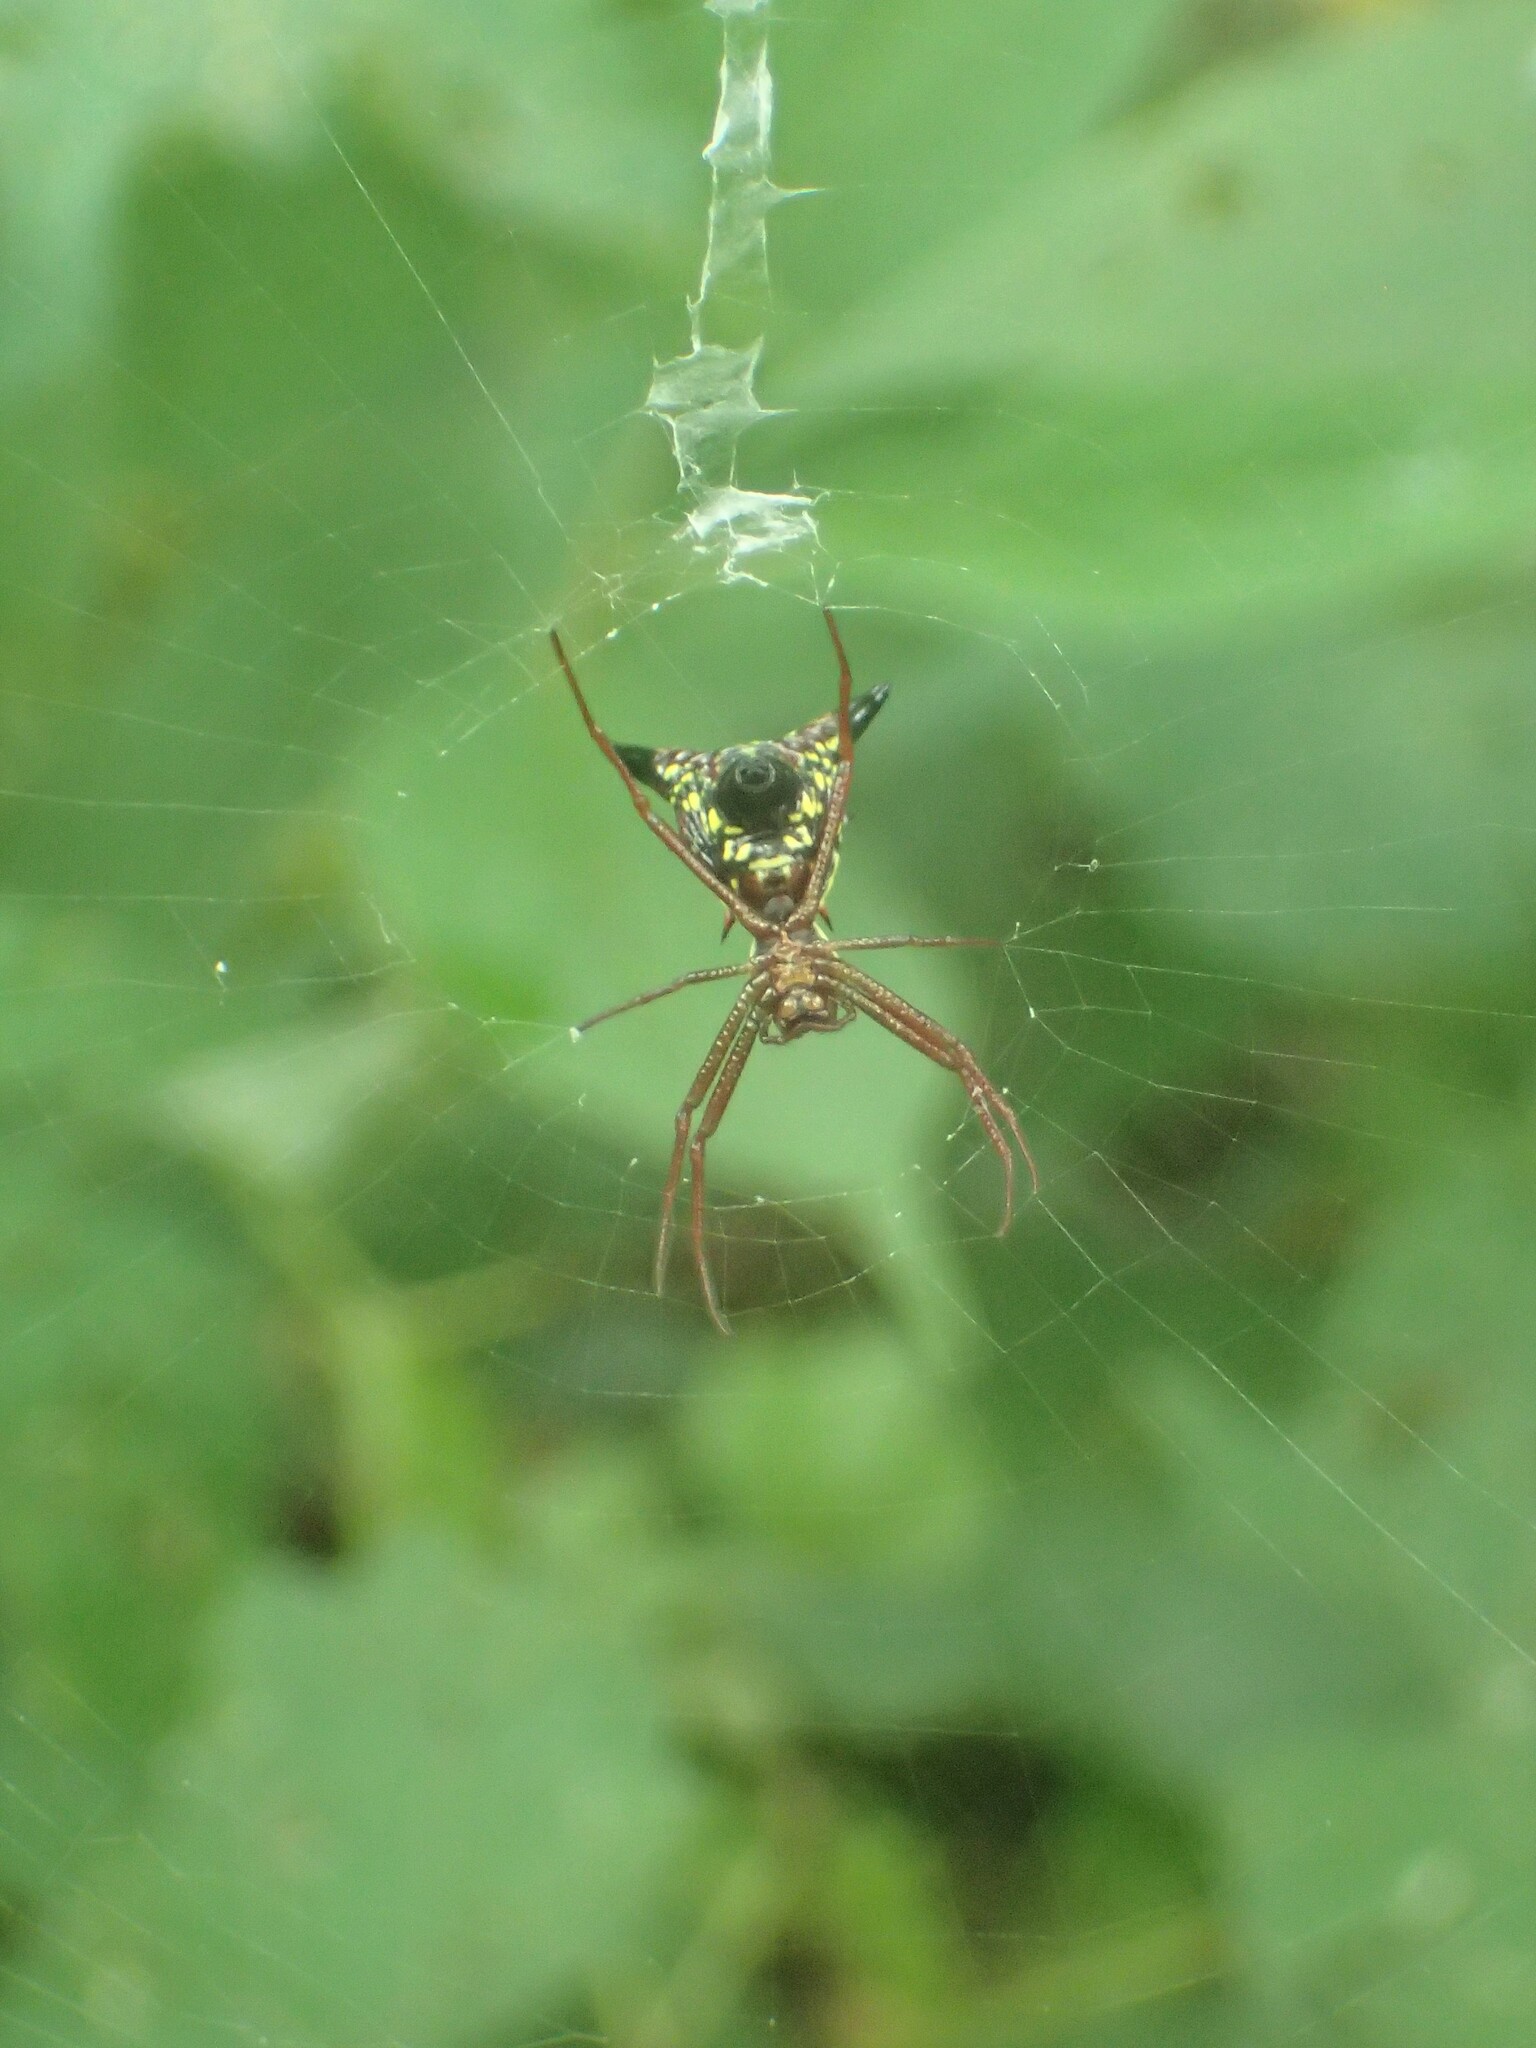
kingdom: Animalia
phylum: Arthropoda
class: Arachnida
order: Araneae
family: Araneidae
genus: Micrathena
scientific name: Micrathena sagittata
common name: Orb weavers
